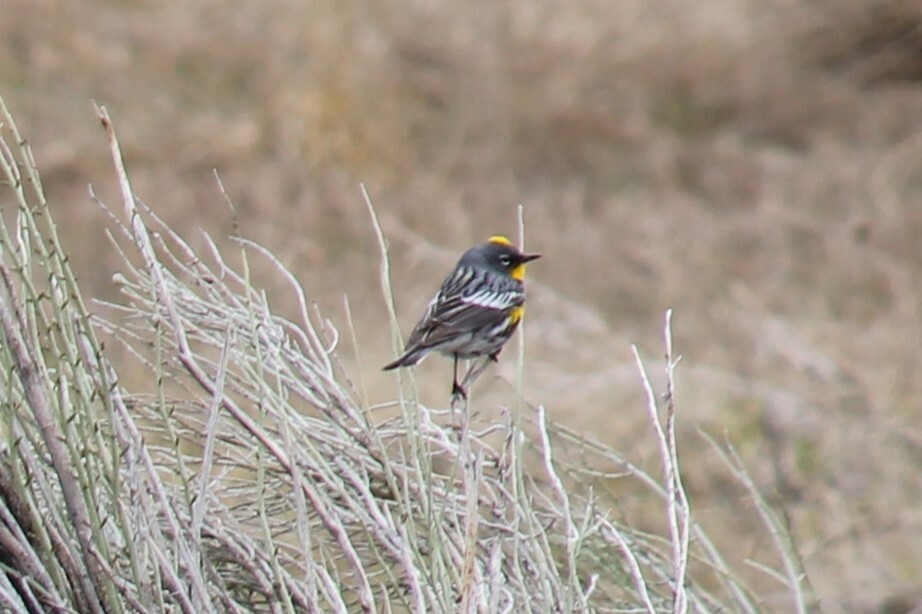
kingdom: Animalia
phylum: Chordata
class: Aves
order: Passeriformes
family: Parulidae
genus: Setophaga
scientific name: Setophaga coronata
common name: Myrtle warbler
